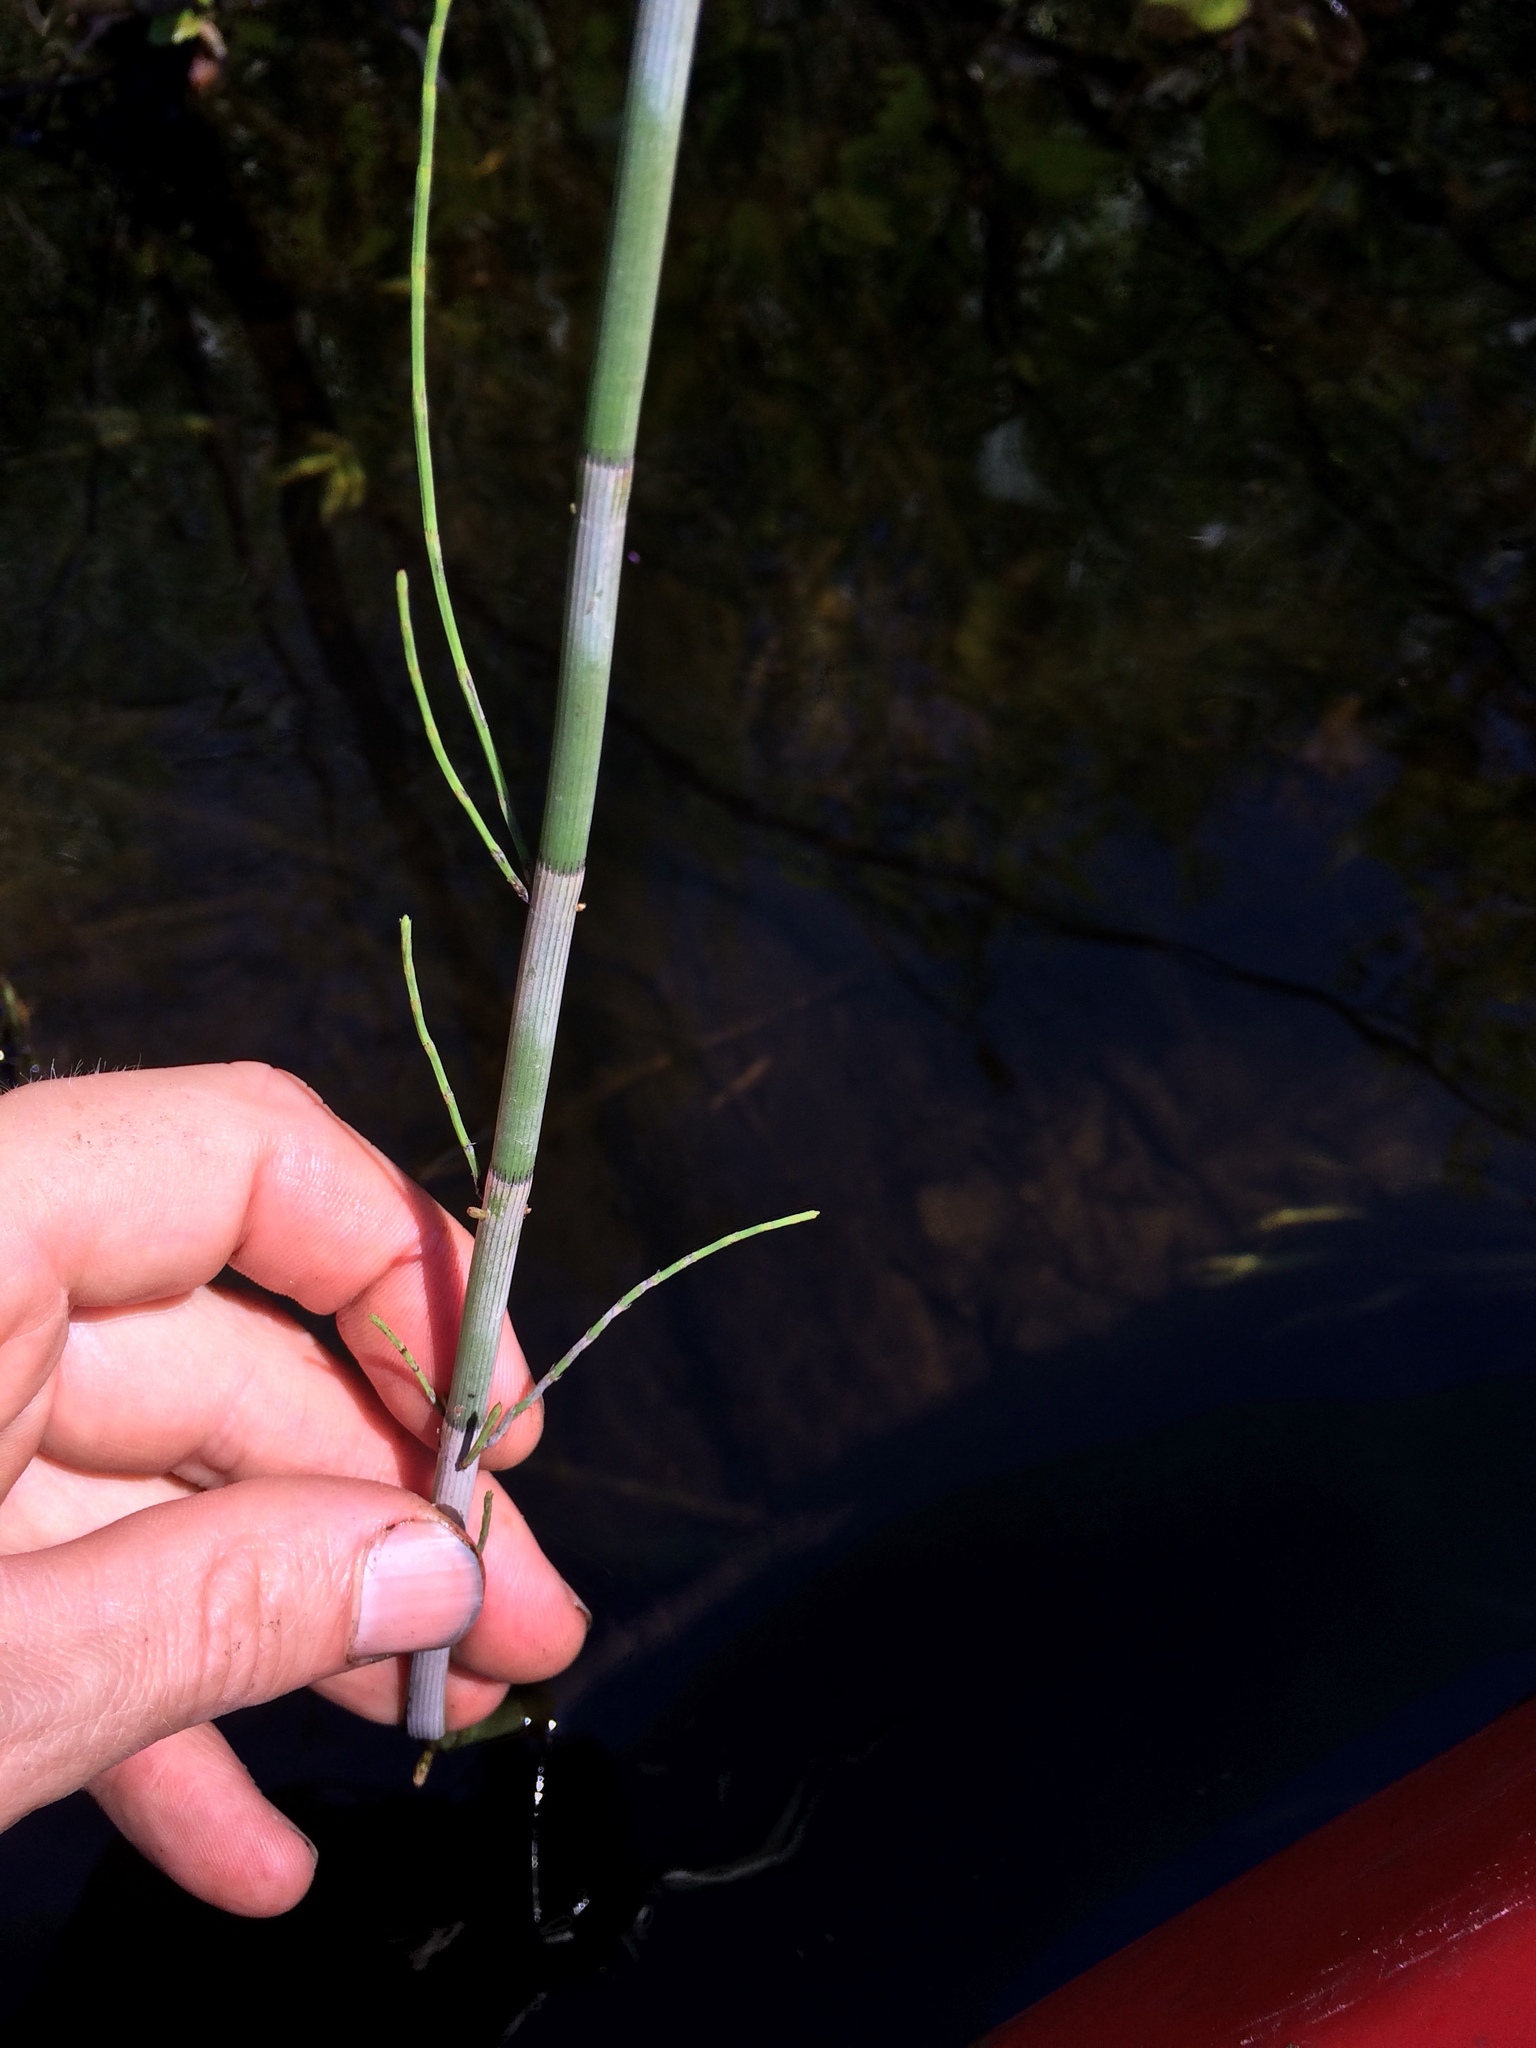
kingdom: Plantae
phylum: Tracheophyta
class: Polypodiopsida
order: Equisetales
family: Equisetaceae
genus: Equisetum
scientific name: Equisetum fluviatile
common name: Water horsetail
